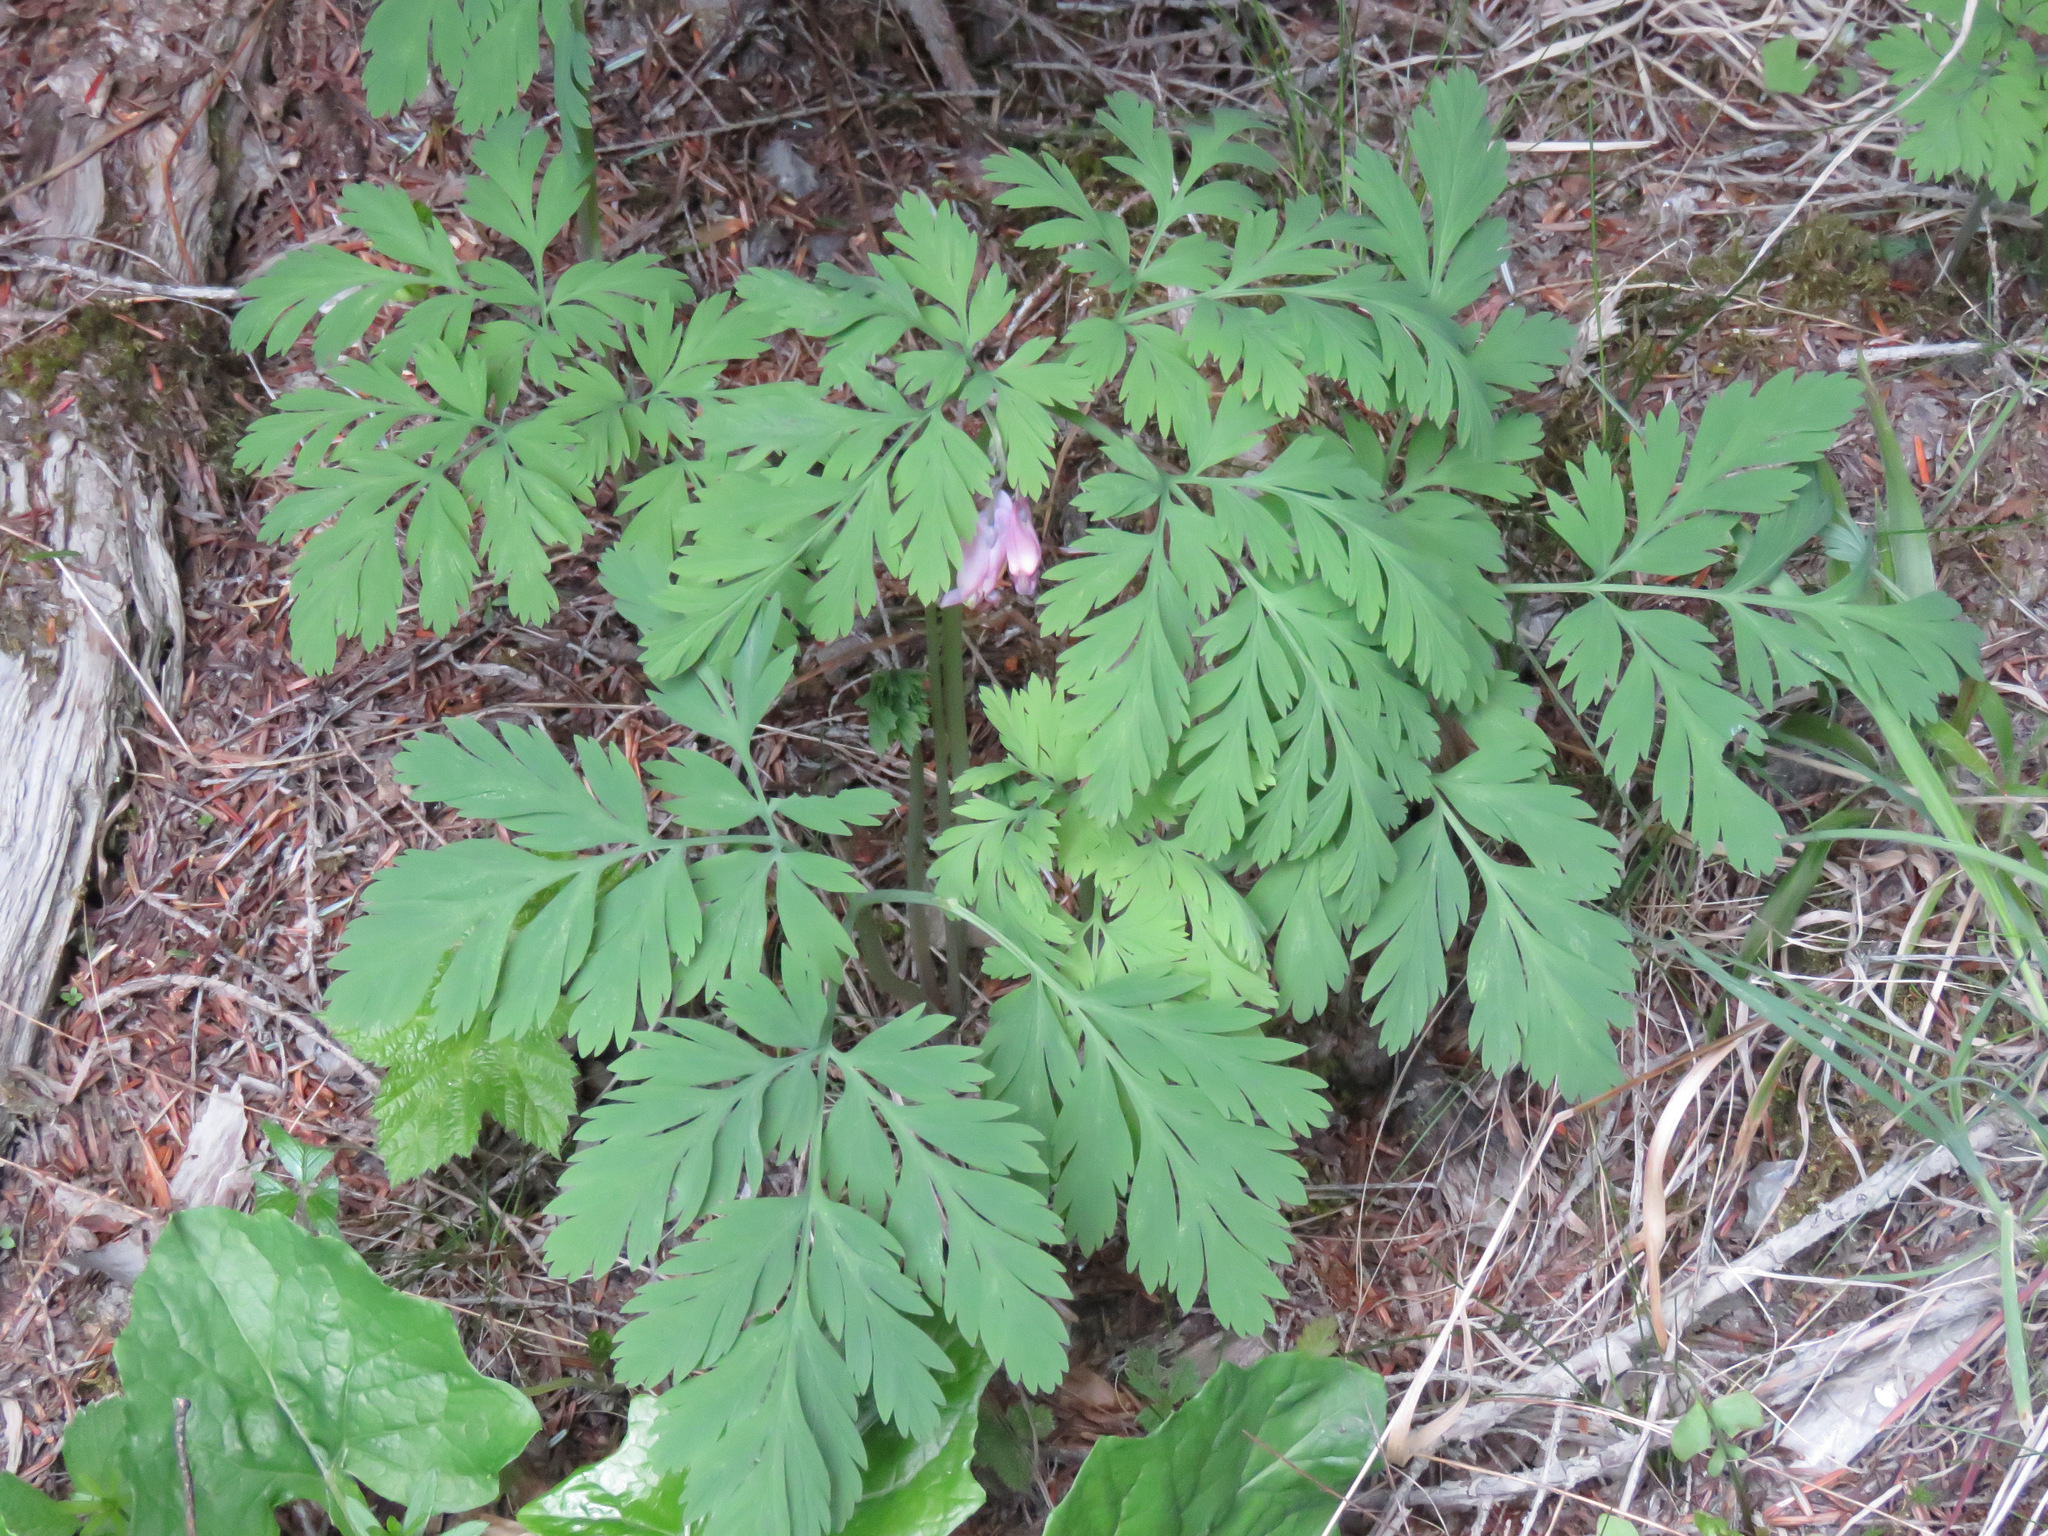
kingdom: Plantae
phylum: Tracheophyta
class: Magnoliopsida
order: Ranunculales
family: Papaveraceae
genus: Dicentra
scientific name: Dicentra formosa
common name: Bleeding-heart
